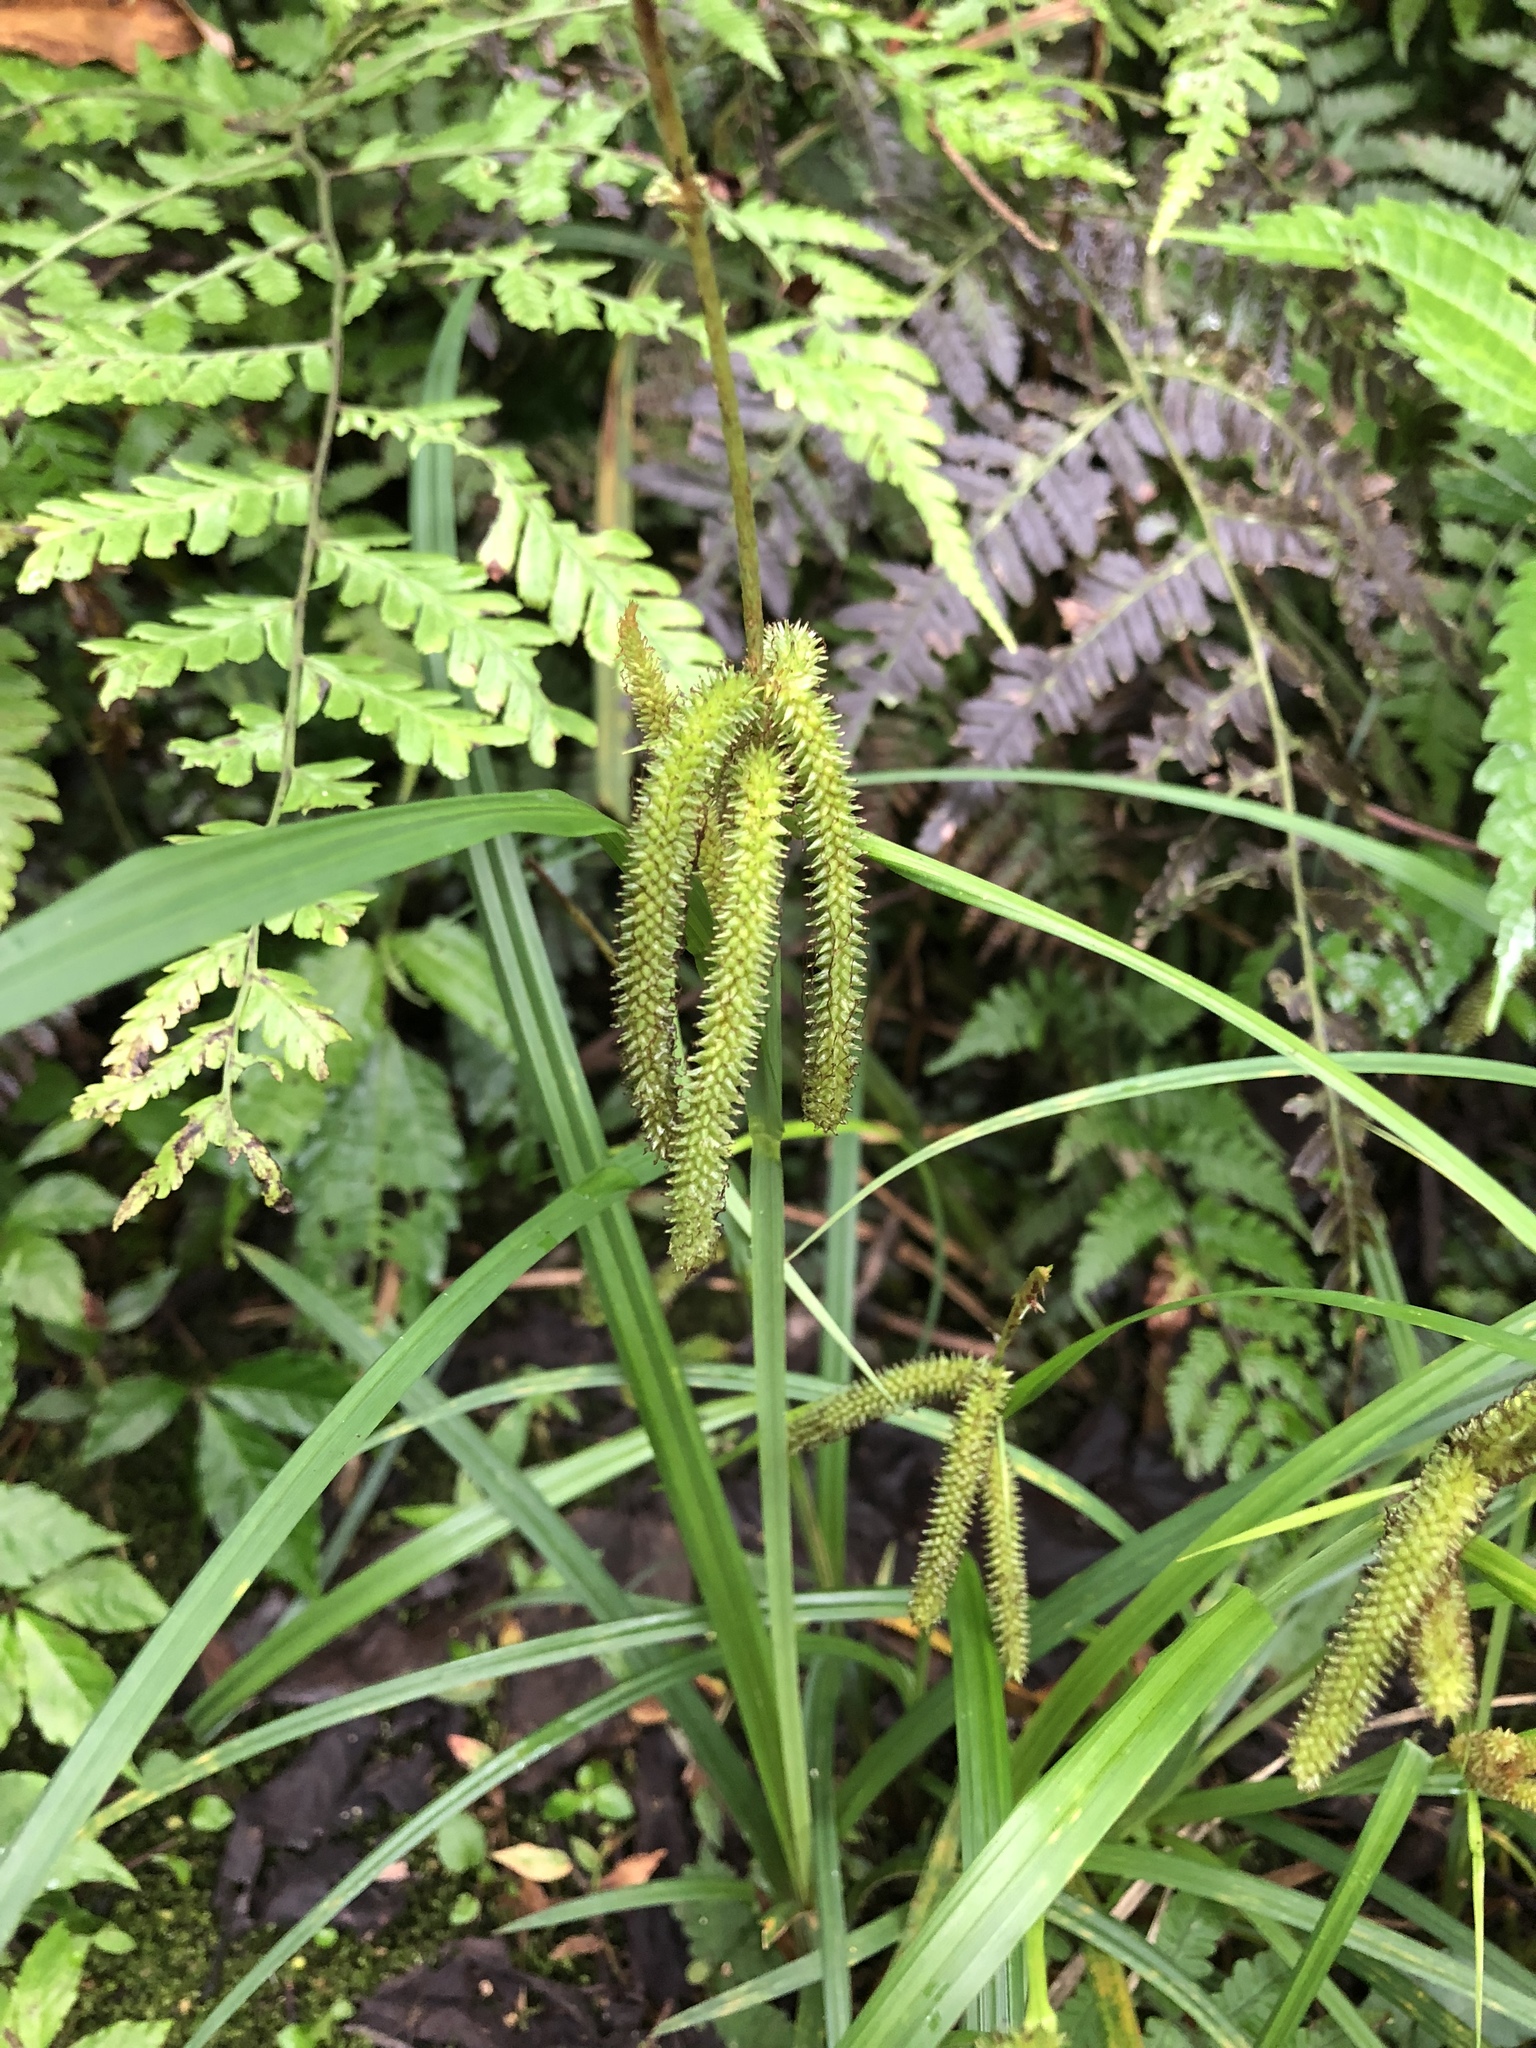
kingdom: Plantae
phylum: Tracheophyta
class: Liliopsida
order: Poales
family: Cyperaceae
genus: Carex
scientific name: Carex doniana
